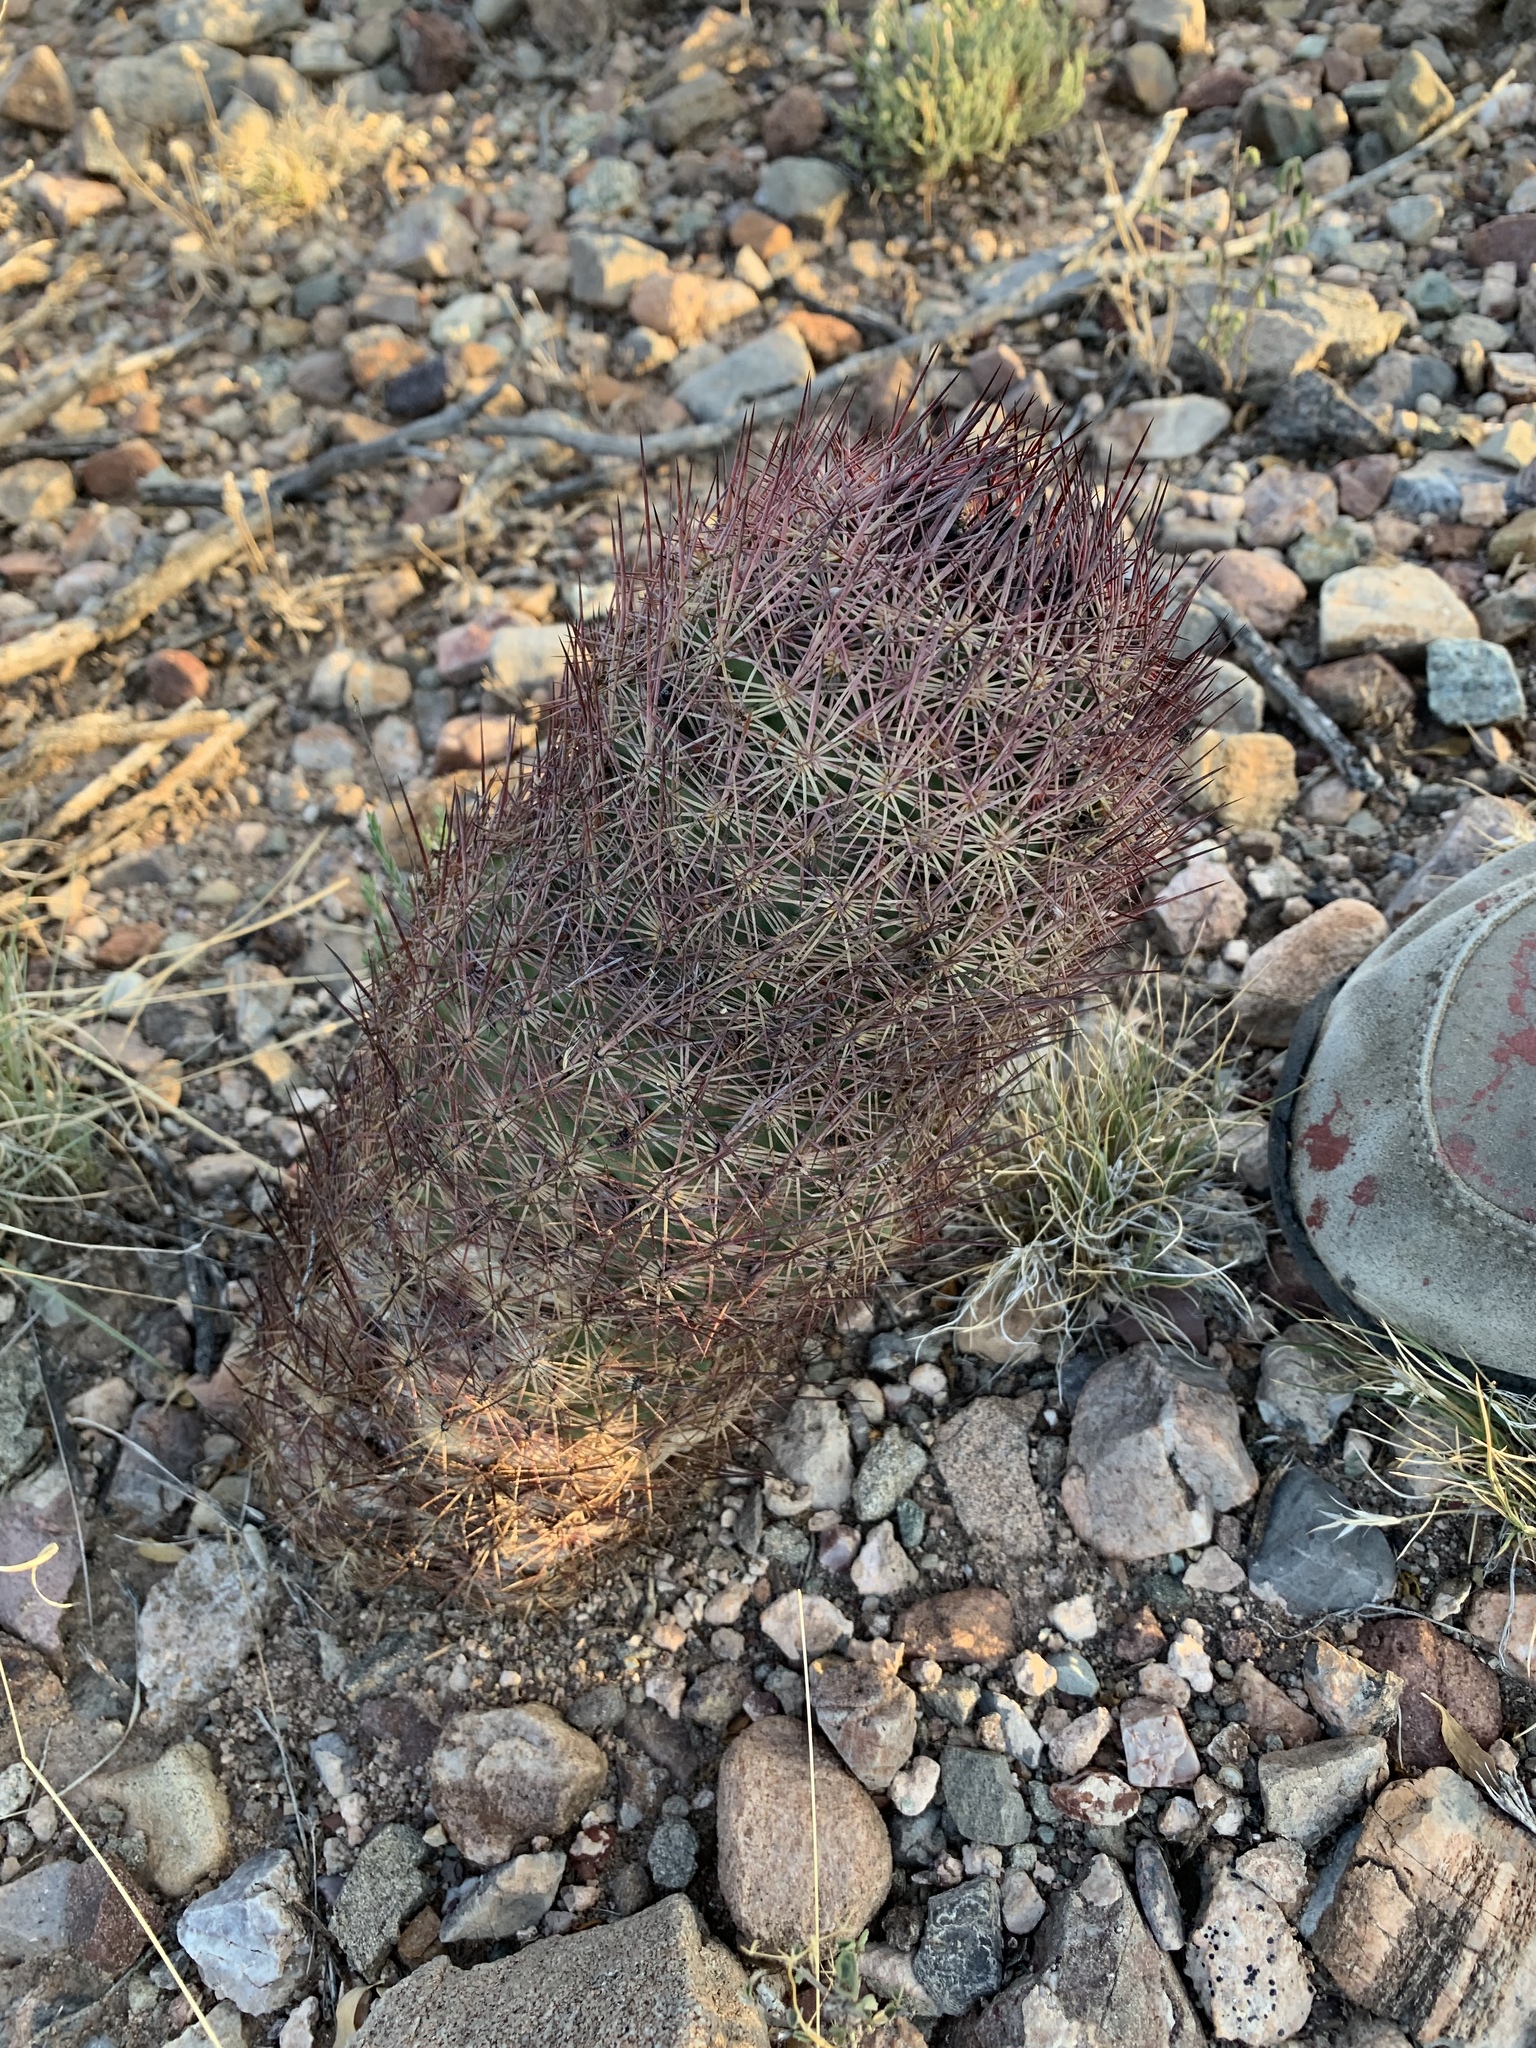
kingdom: Plantae
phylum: Tracheophyta
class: Magnoliopsida
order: Caryophyllales
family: Cactaceae
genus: Sclerocactus
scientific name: Sclerocactus johnsonii
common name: Eight-spine fishhook cactus
